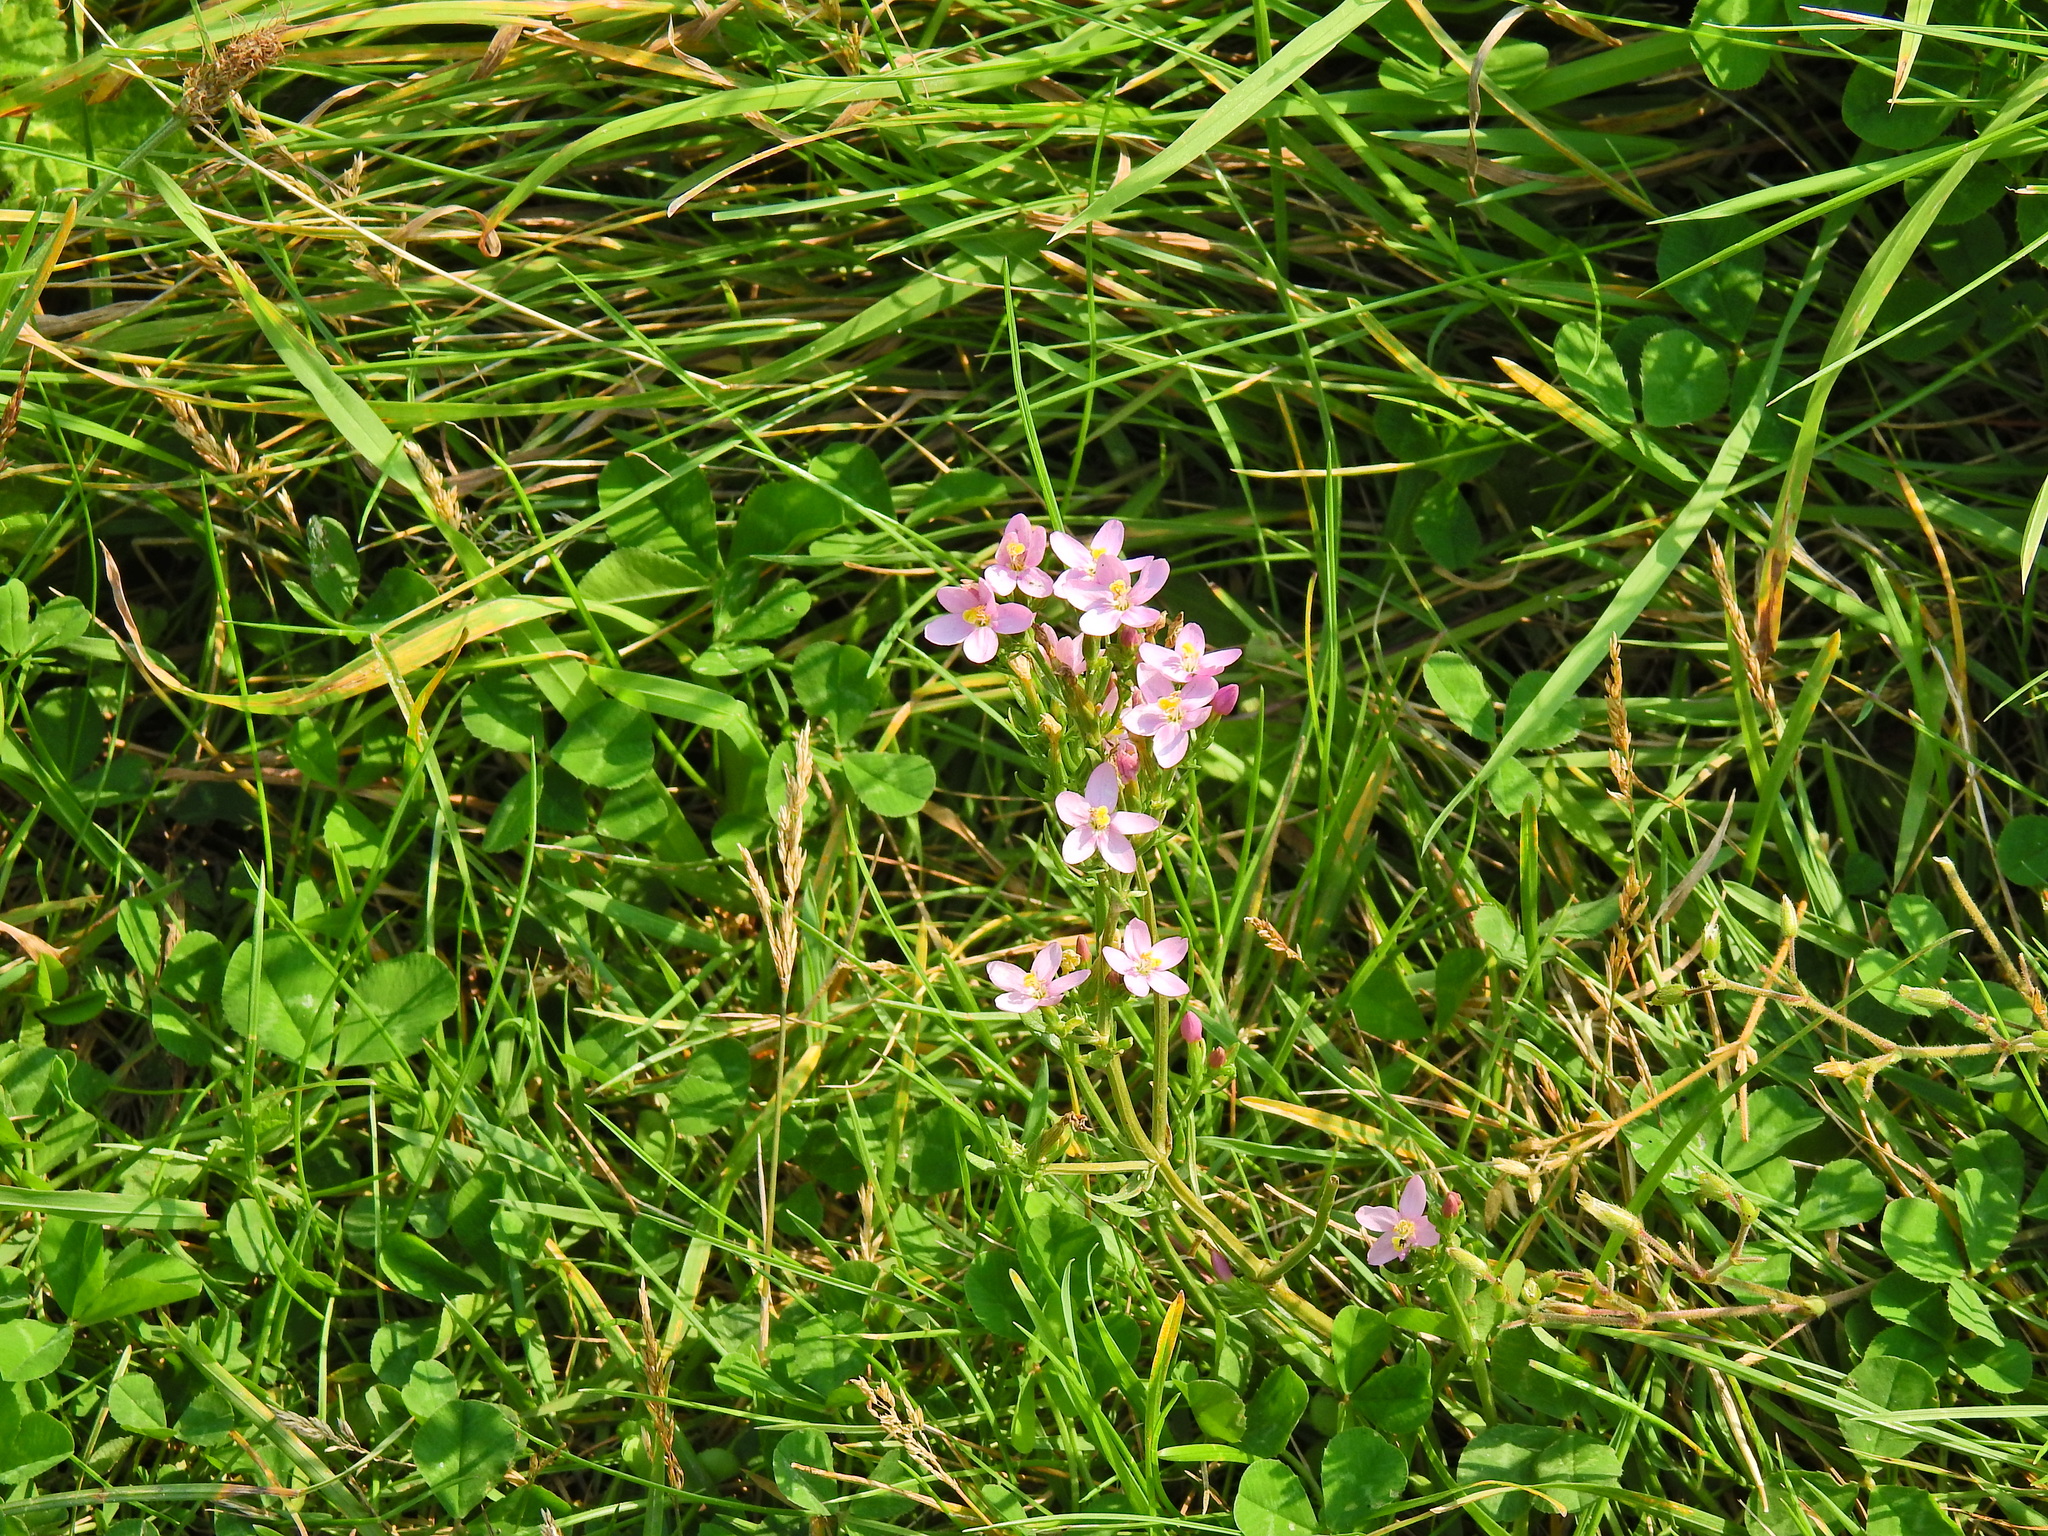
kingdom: Plantae
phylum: Tracheophyta
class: Magnoliopsida
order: Gentianales
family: Gentianaceae
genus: Centaurium
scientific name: Centaurium erythraea
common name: Common centaury
